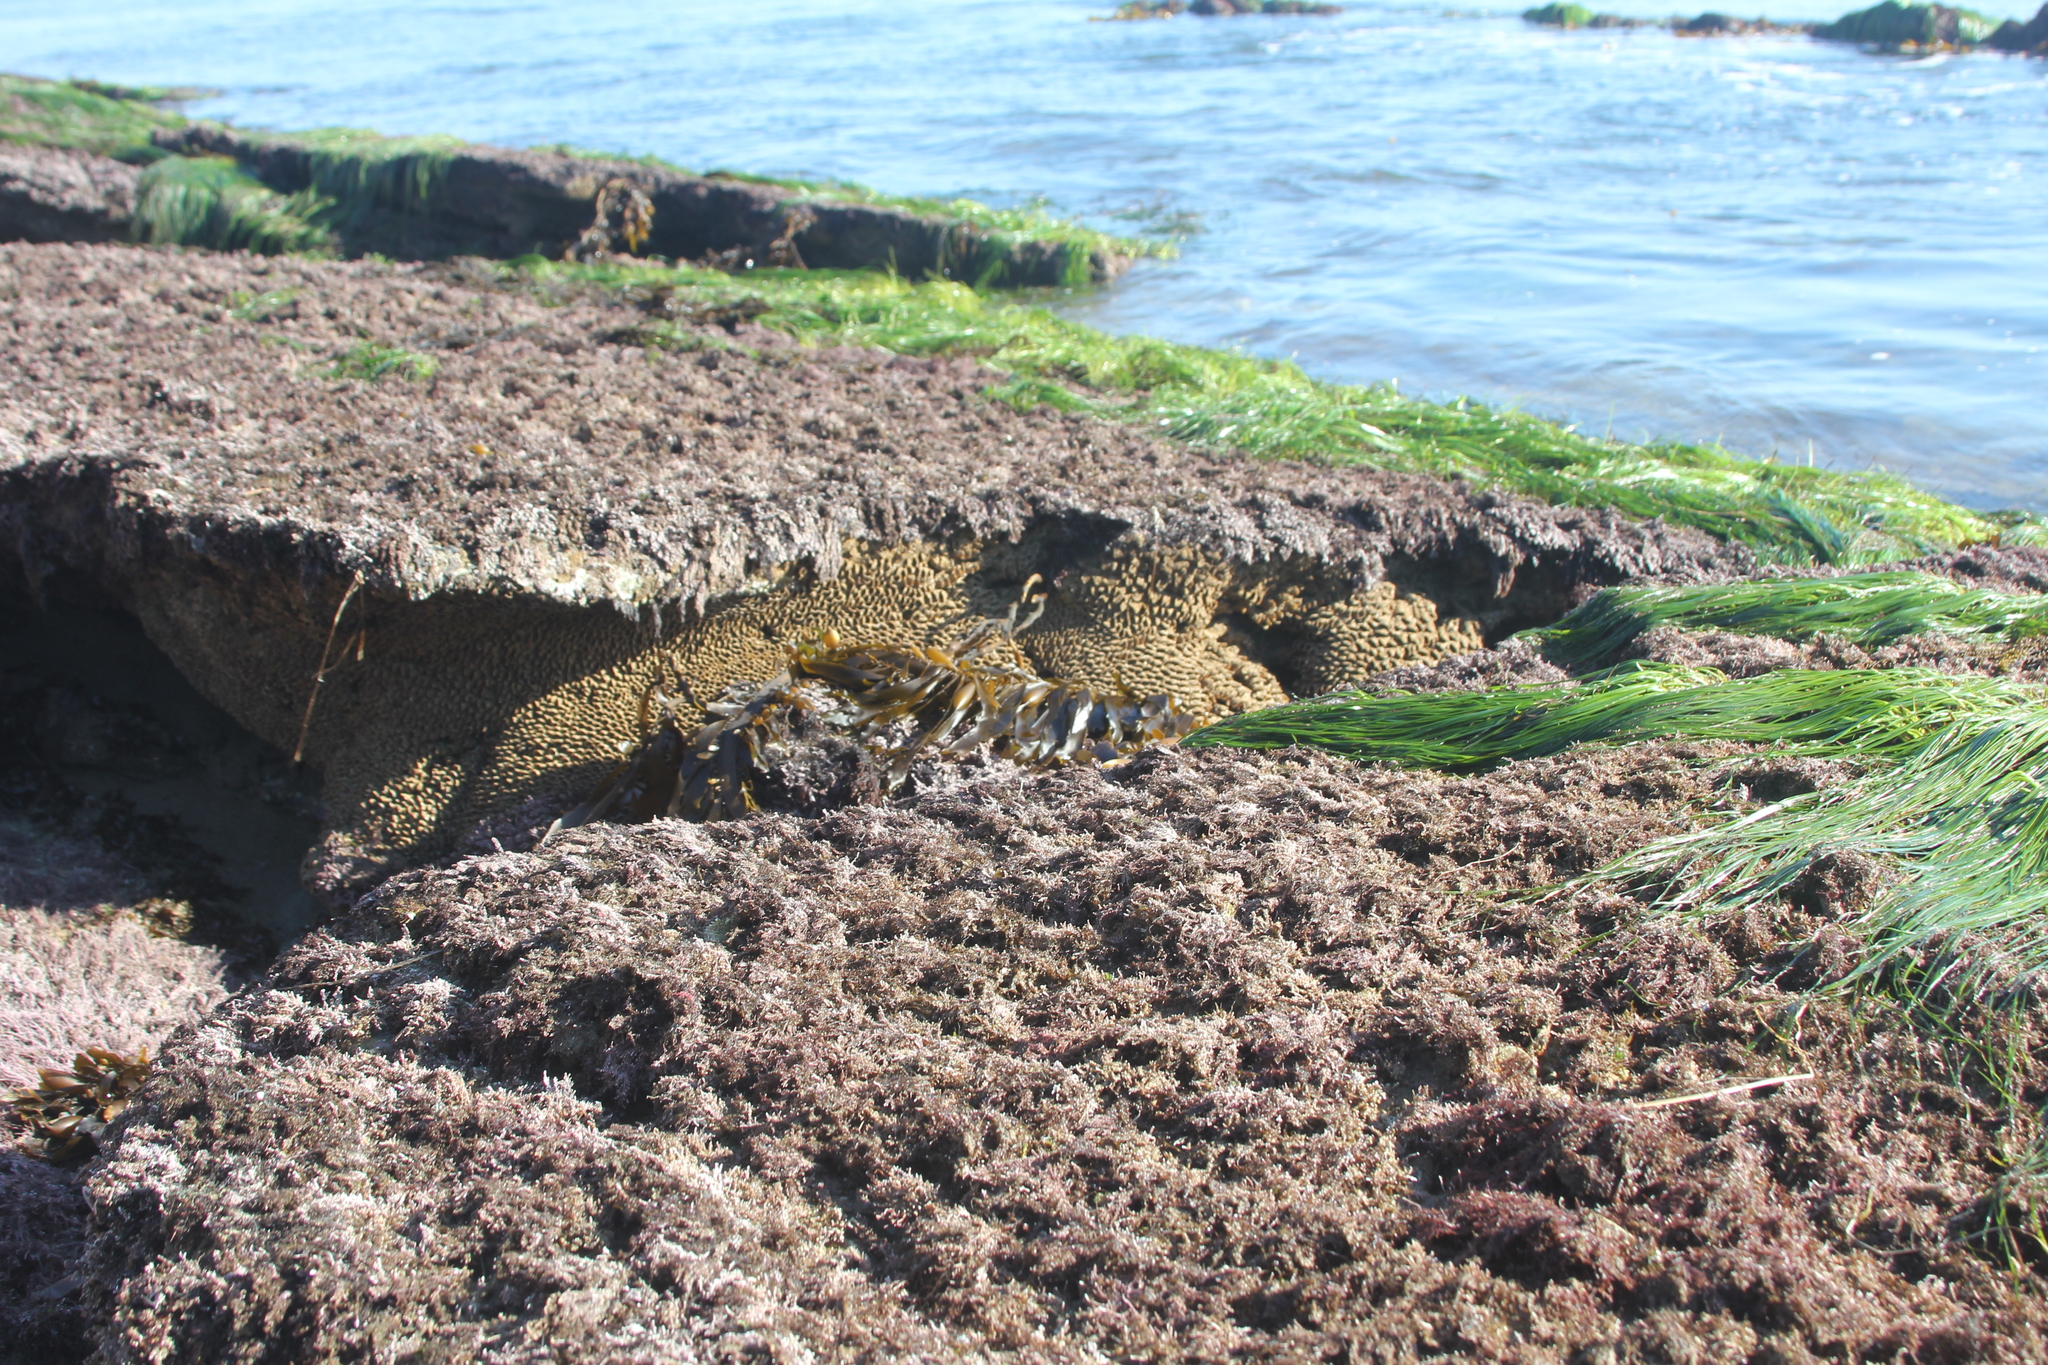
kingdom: Animalia
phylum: Annelida
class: Polychaeta
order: Sabellida
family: Sabellariidae
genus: Phragmatopoma
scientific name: Phragmatopoma californica
